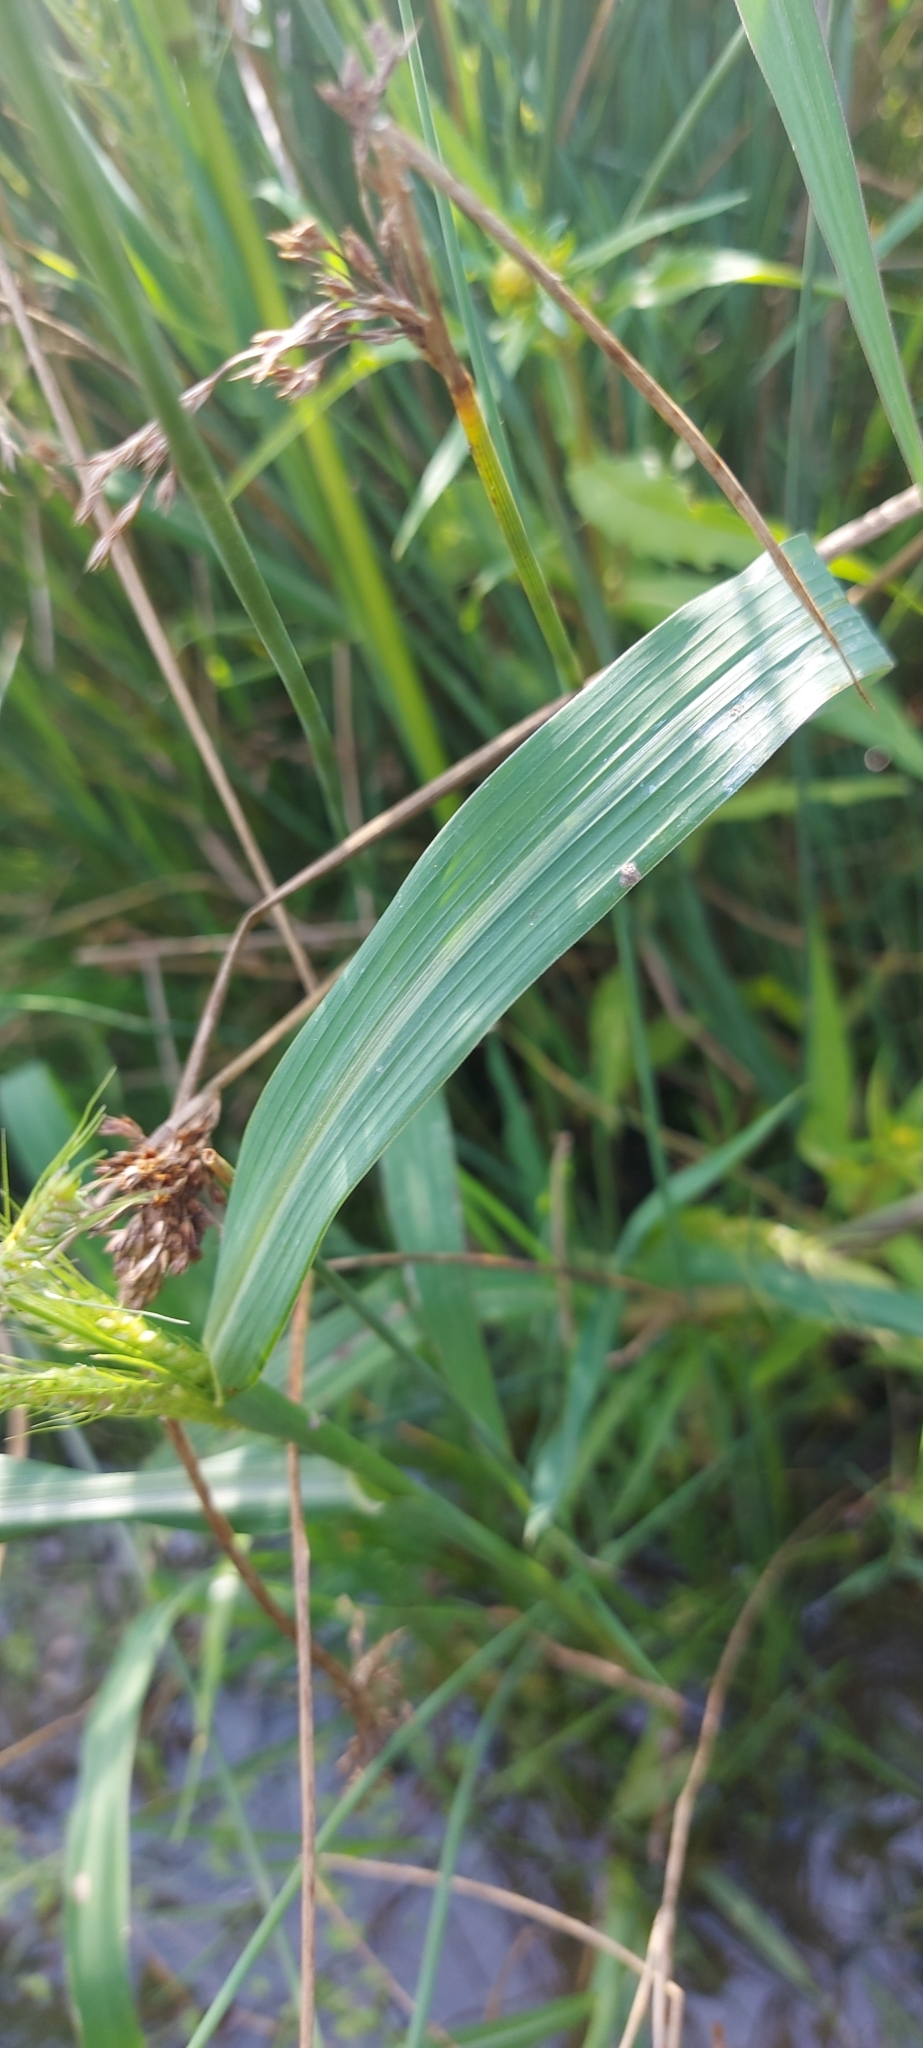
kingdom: Plantae
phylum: Tracheophyta
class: Liliopsida
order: Poales
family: Poaceae
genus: Echinochloa
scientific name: Echinochloa crus-galli
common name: Cockspur
